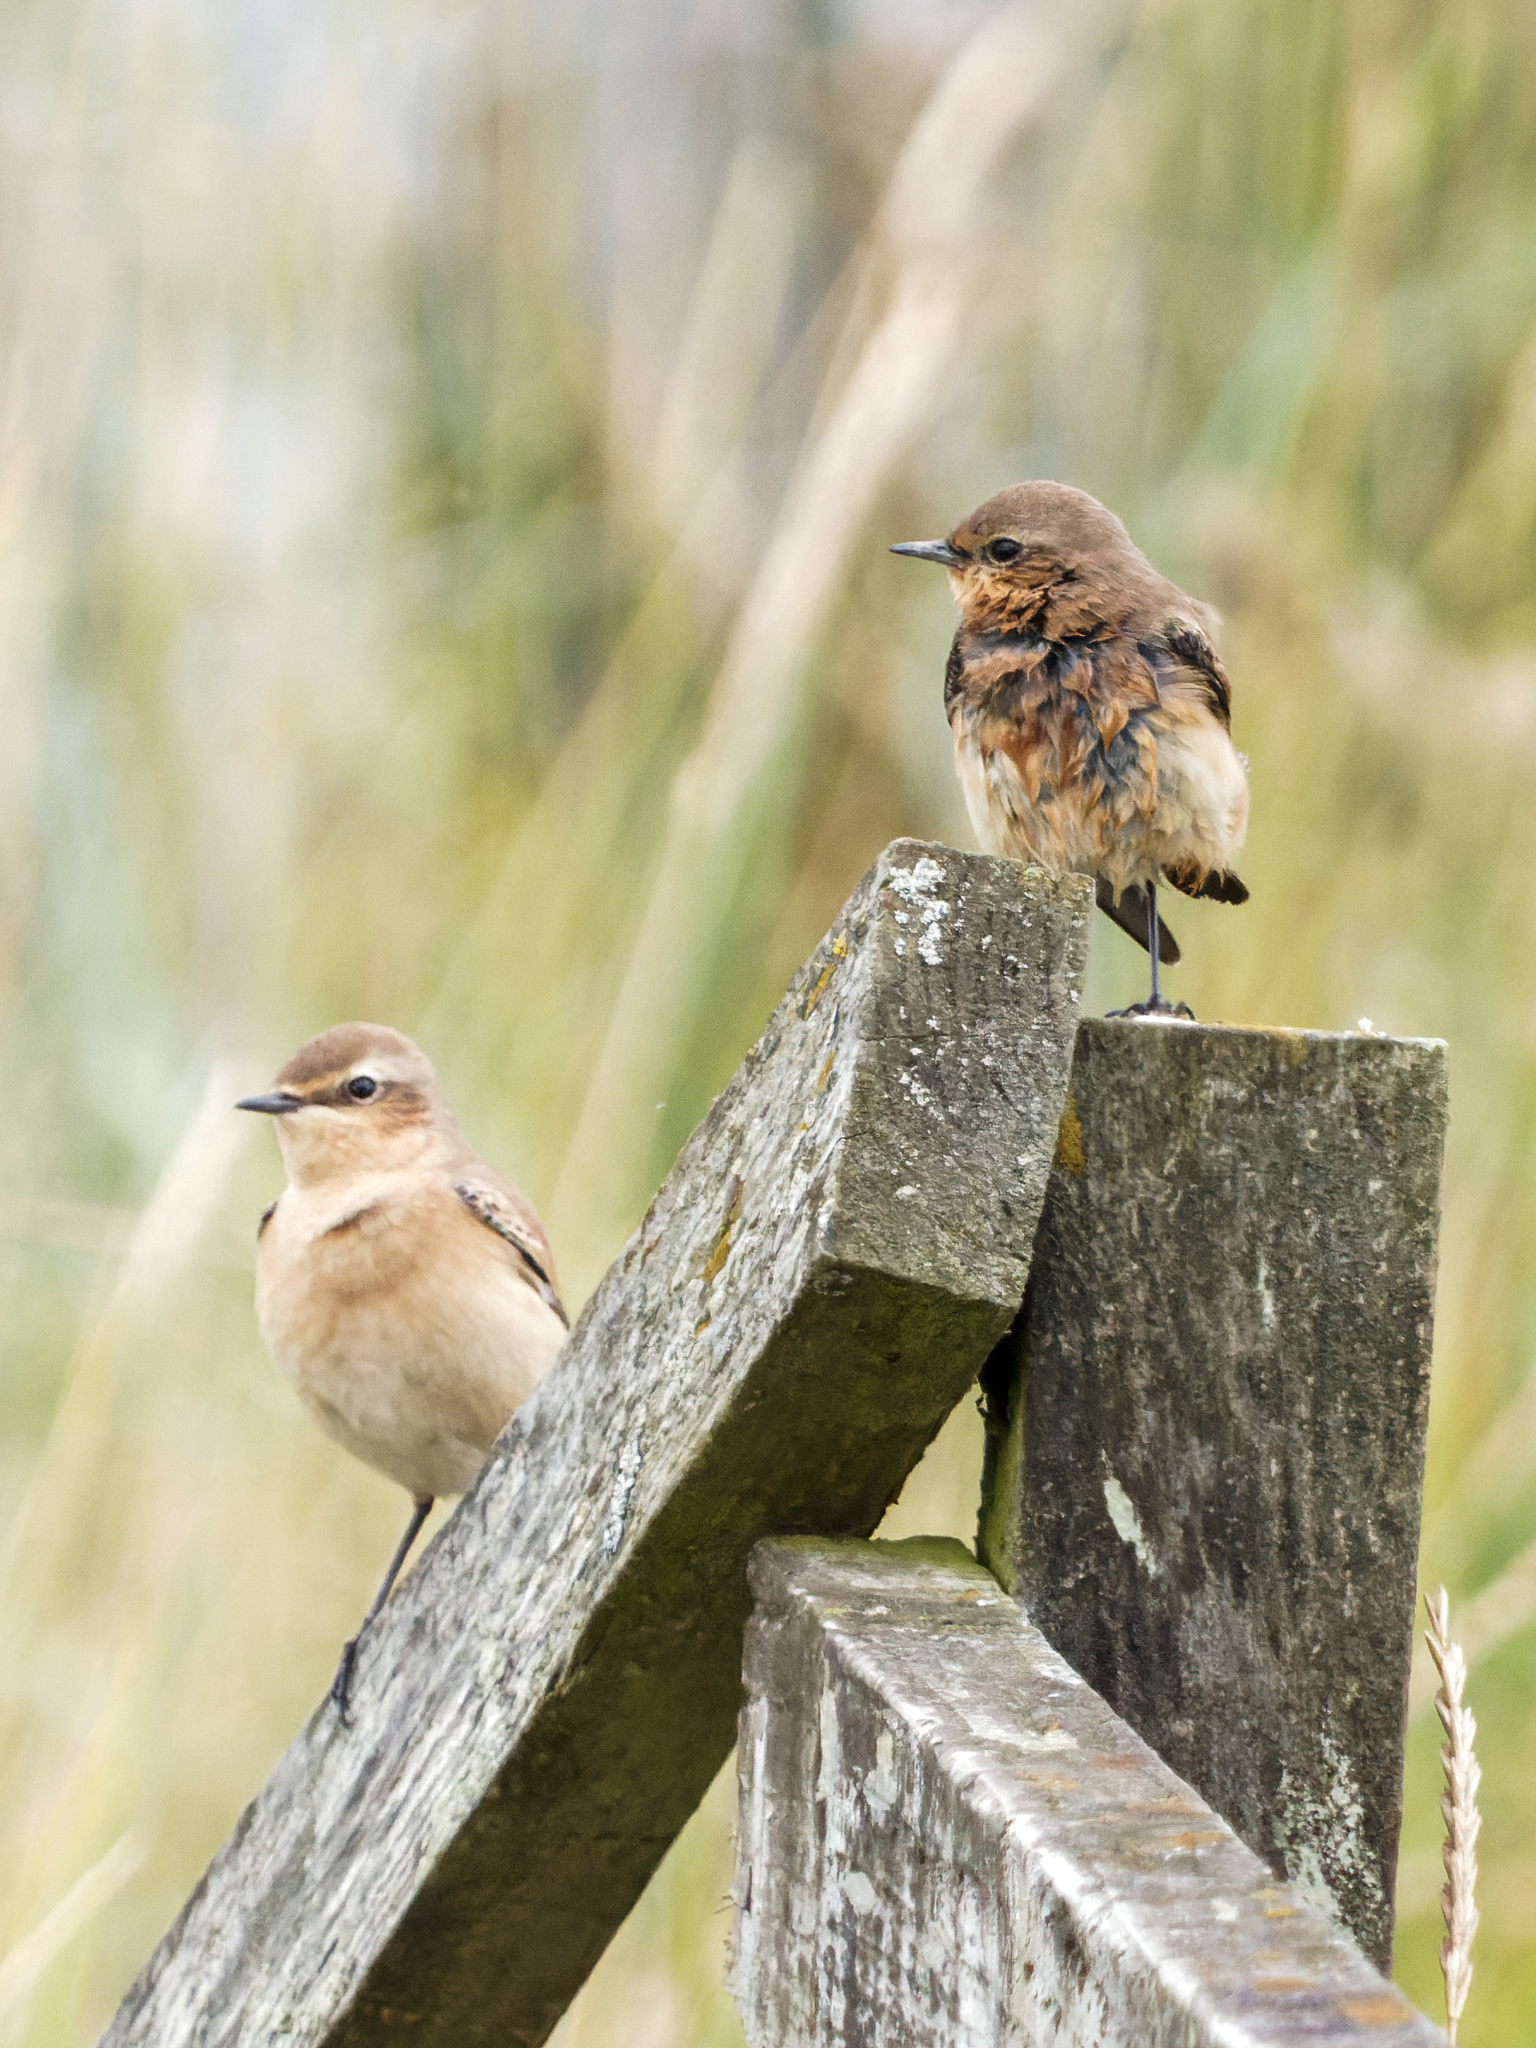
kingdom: Animalia
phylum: Chordata
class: Aves
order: Passeriformes
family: Muscicapidae
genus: Oenanthe
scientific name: Oenanthe oenanthe
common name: Northern wheatear
